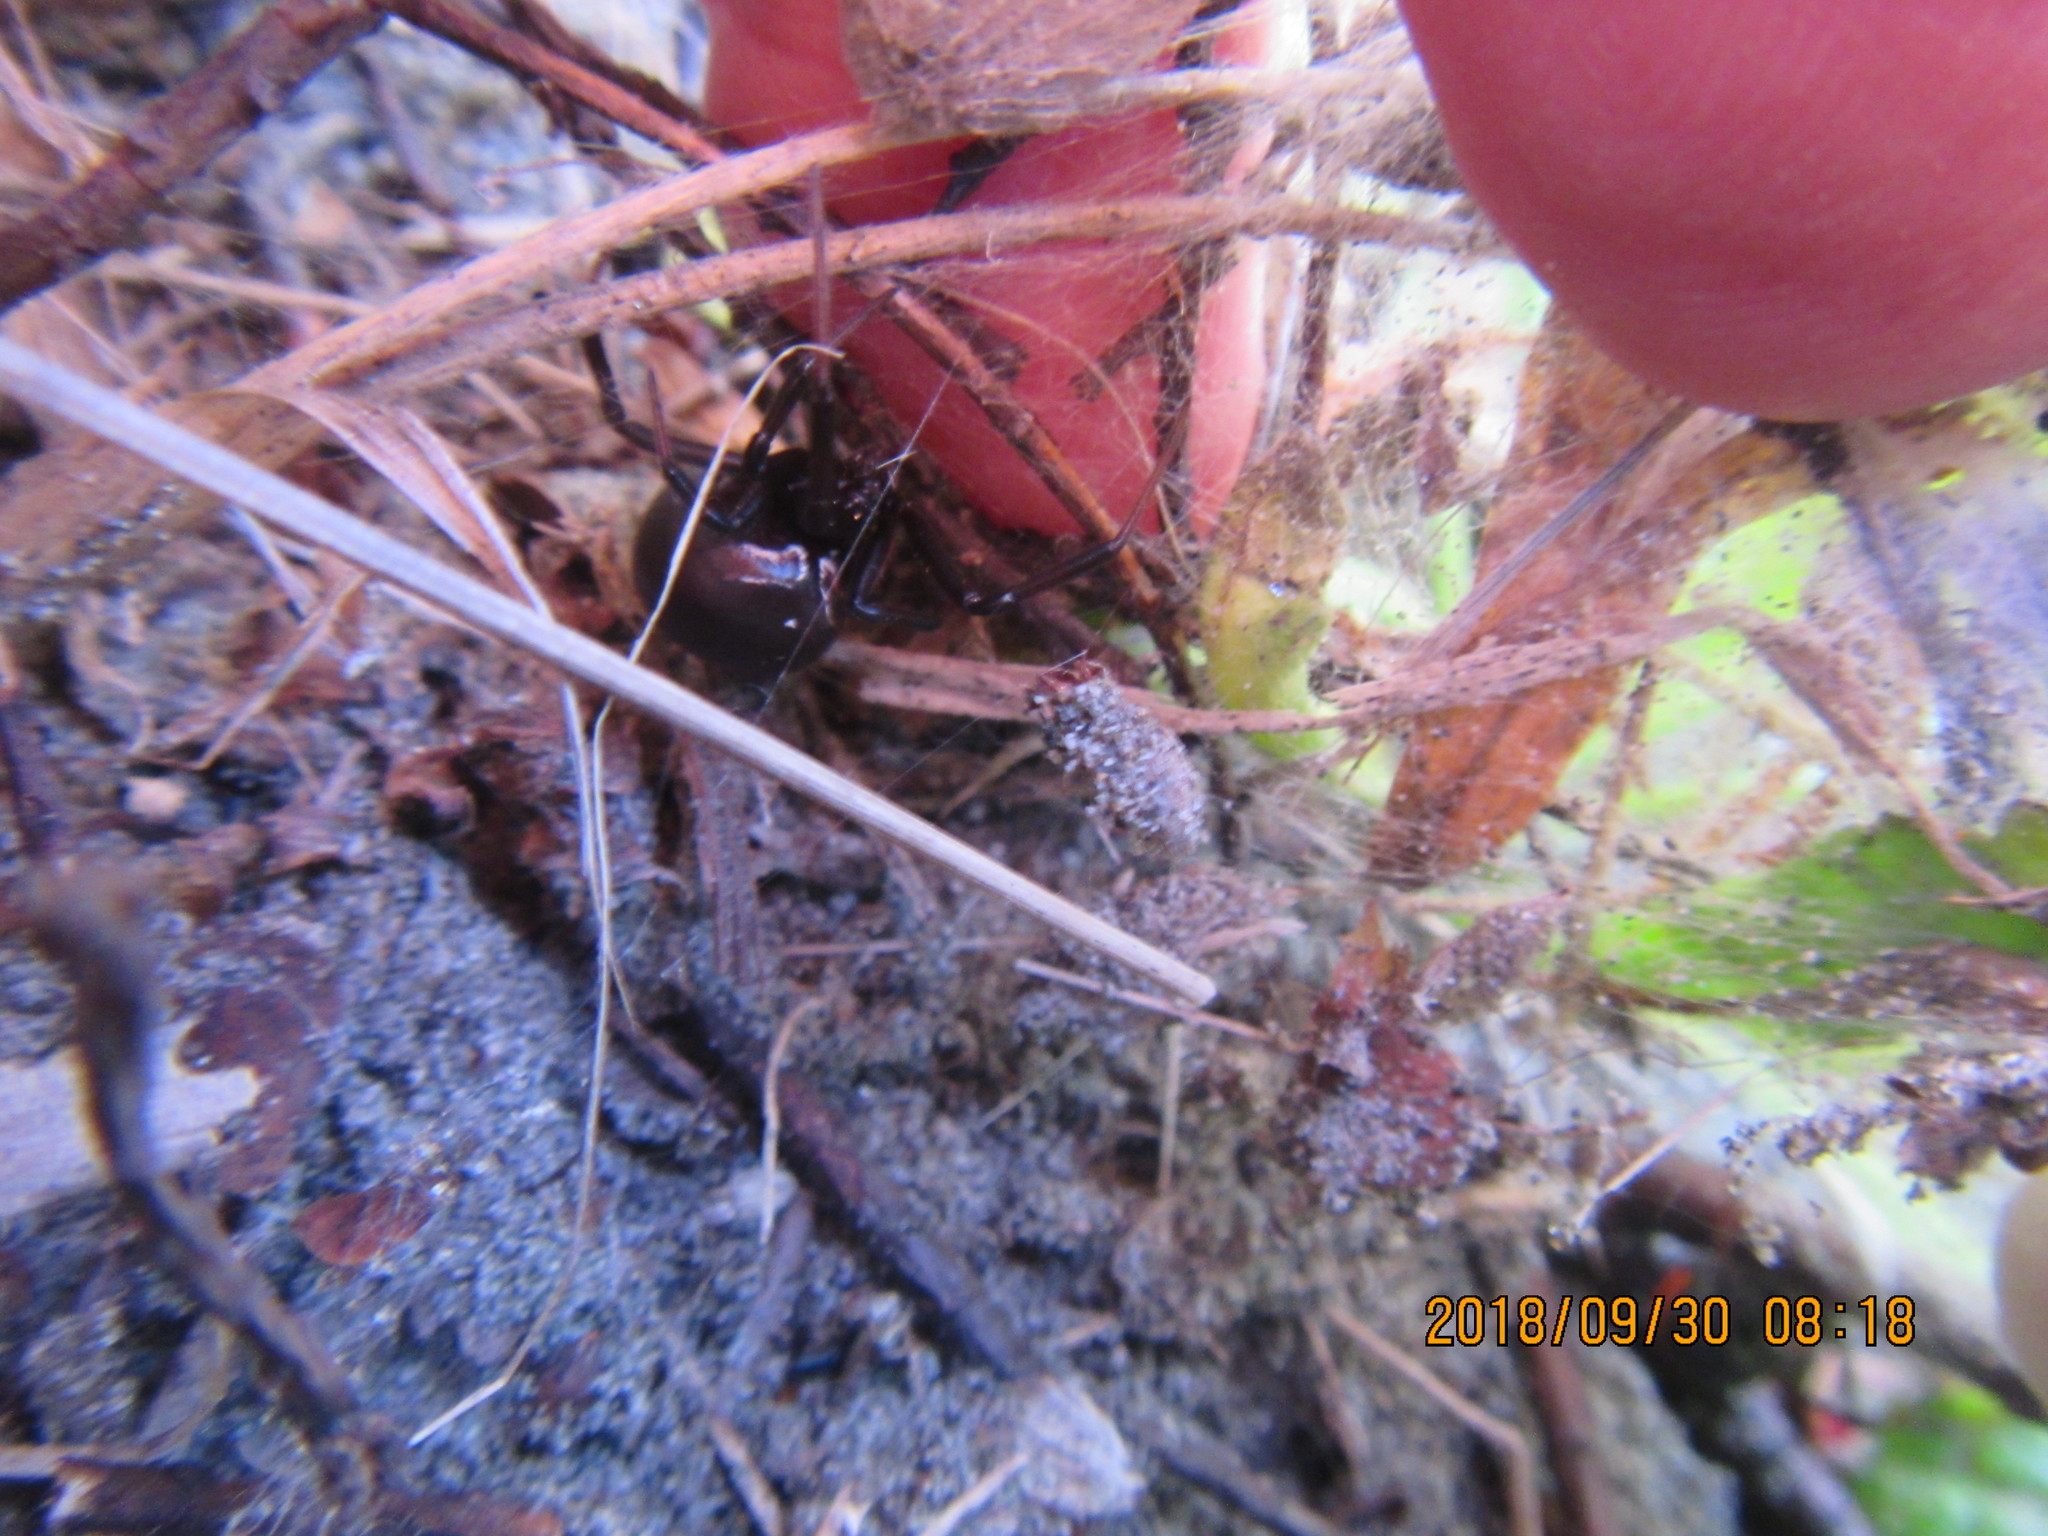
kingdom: Plantae
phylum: Tracheophyta
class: Magnoliopsida
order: Malvales
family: Thymelaeaceae
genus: Pimelea
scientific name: Pimelea villosa
